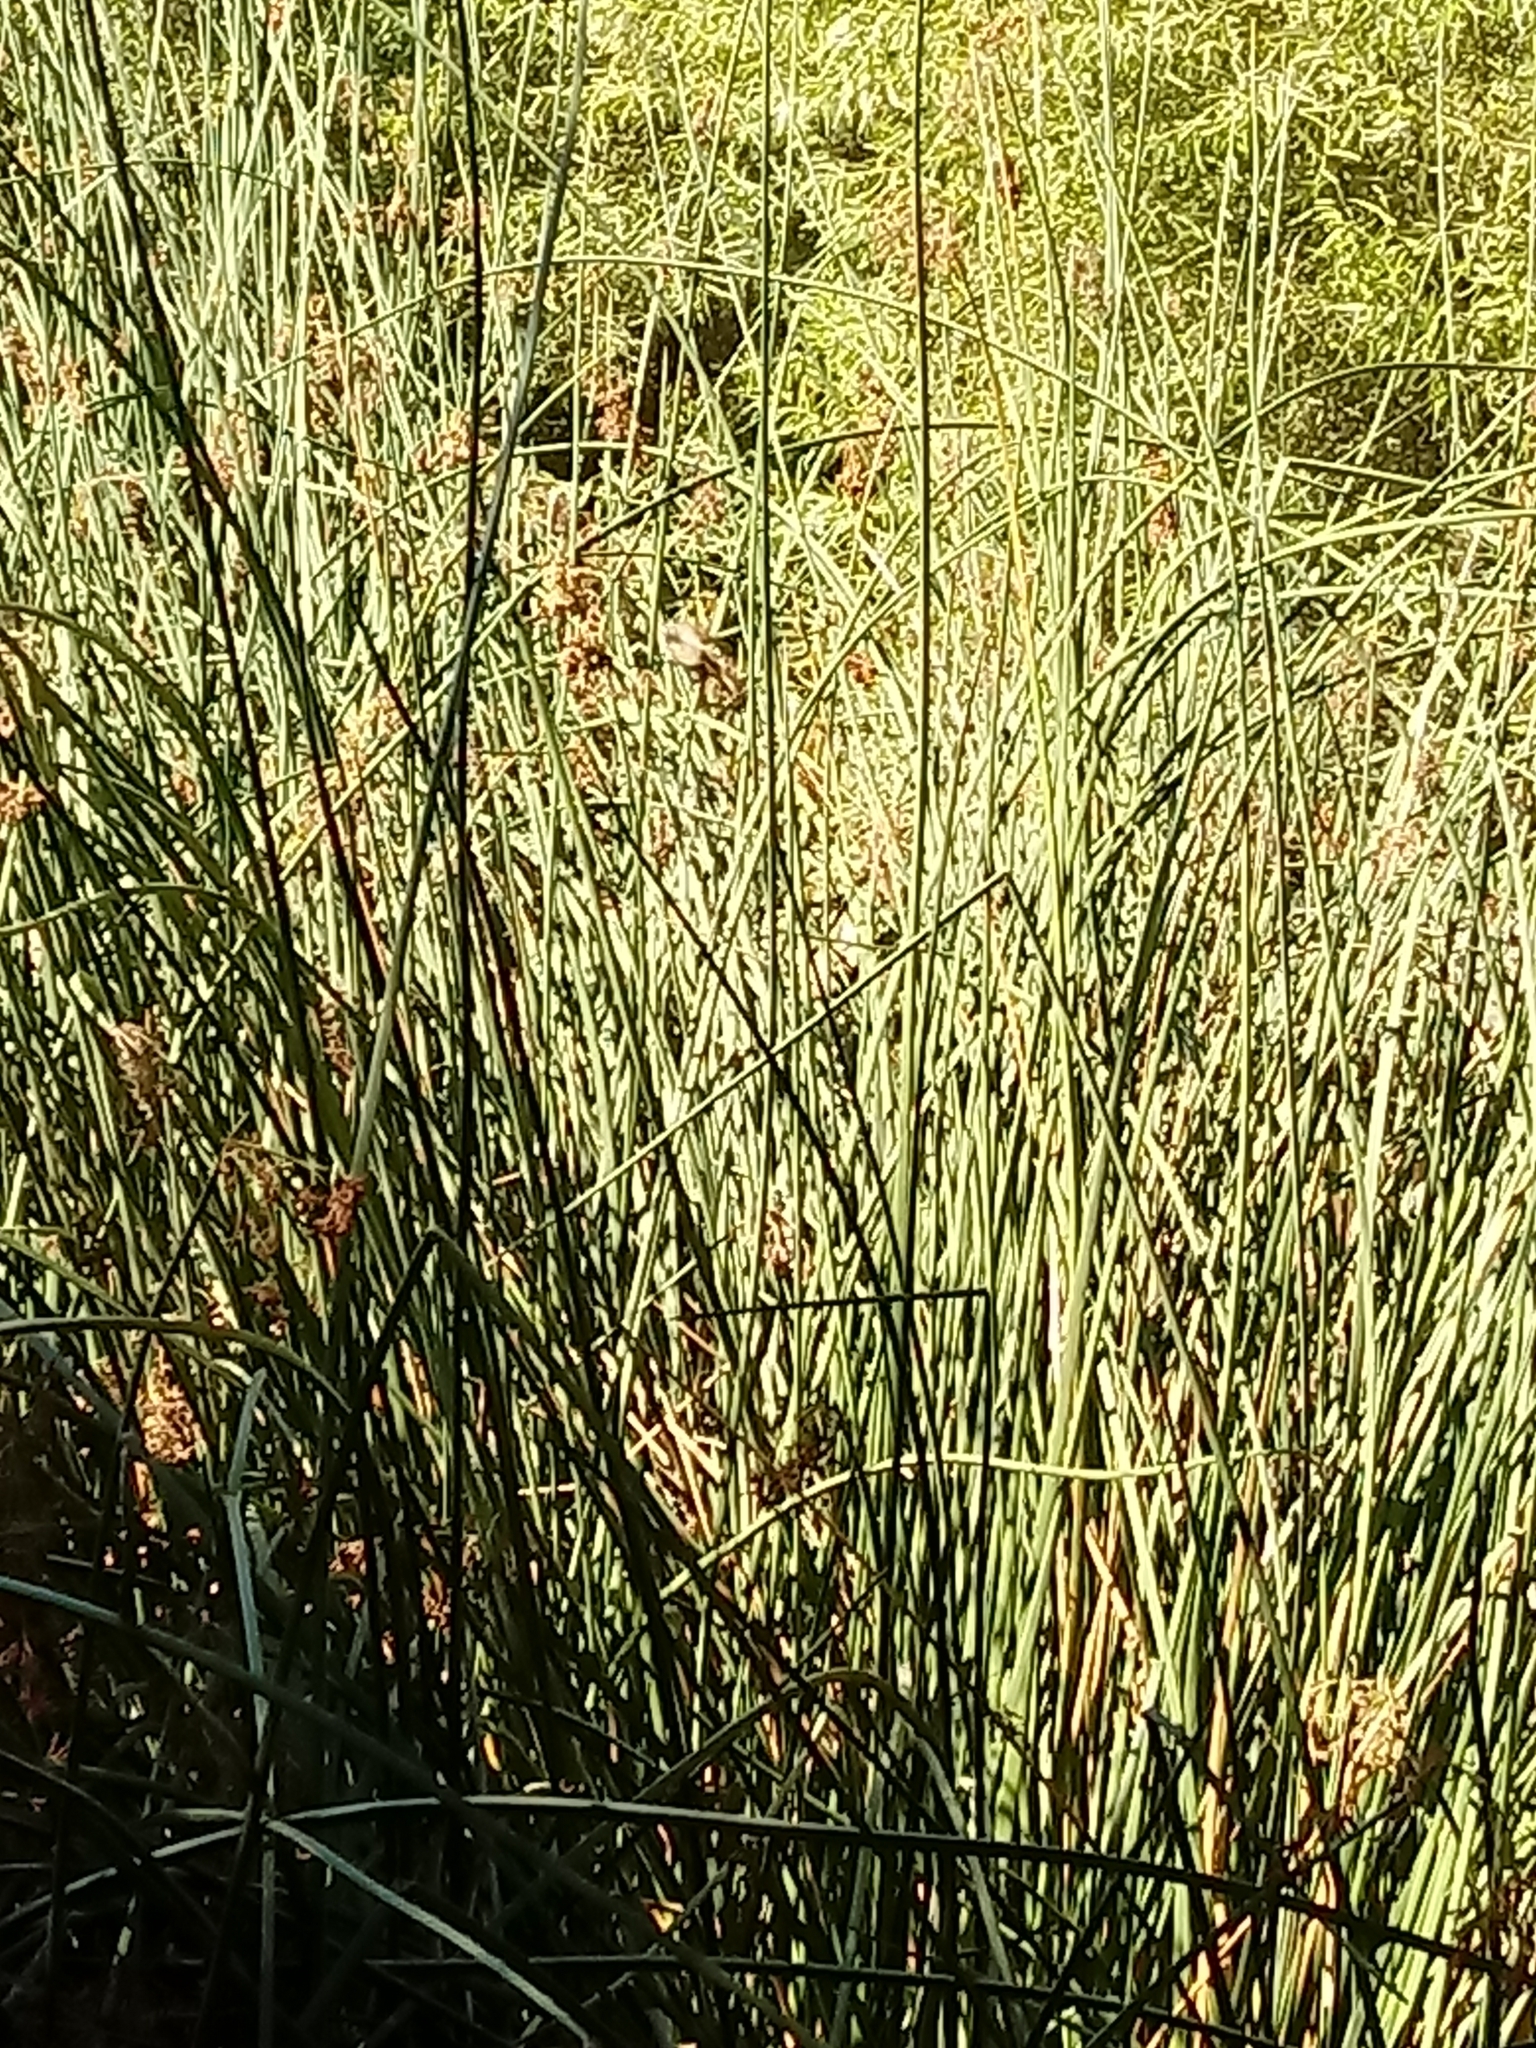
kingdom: Plantae
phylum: Tracheophyta
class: Liliopsida
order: Poales
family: Cyperaceae
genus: Schoenoplectus
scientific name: Schoenoplectus californicus
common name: California bulrush
